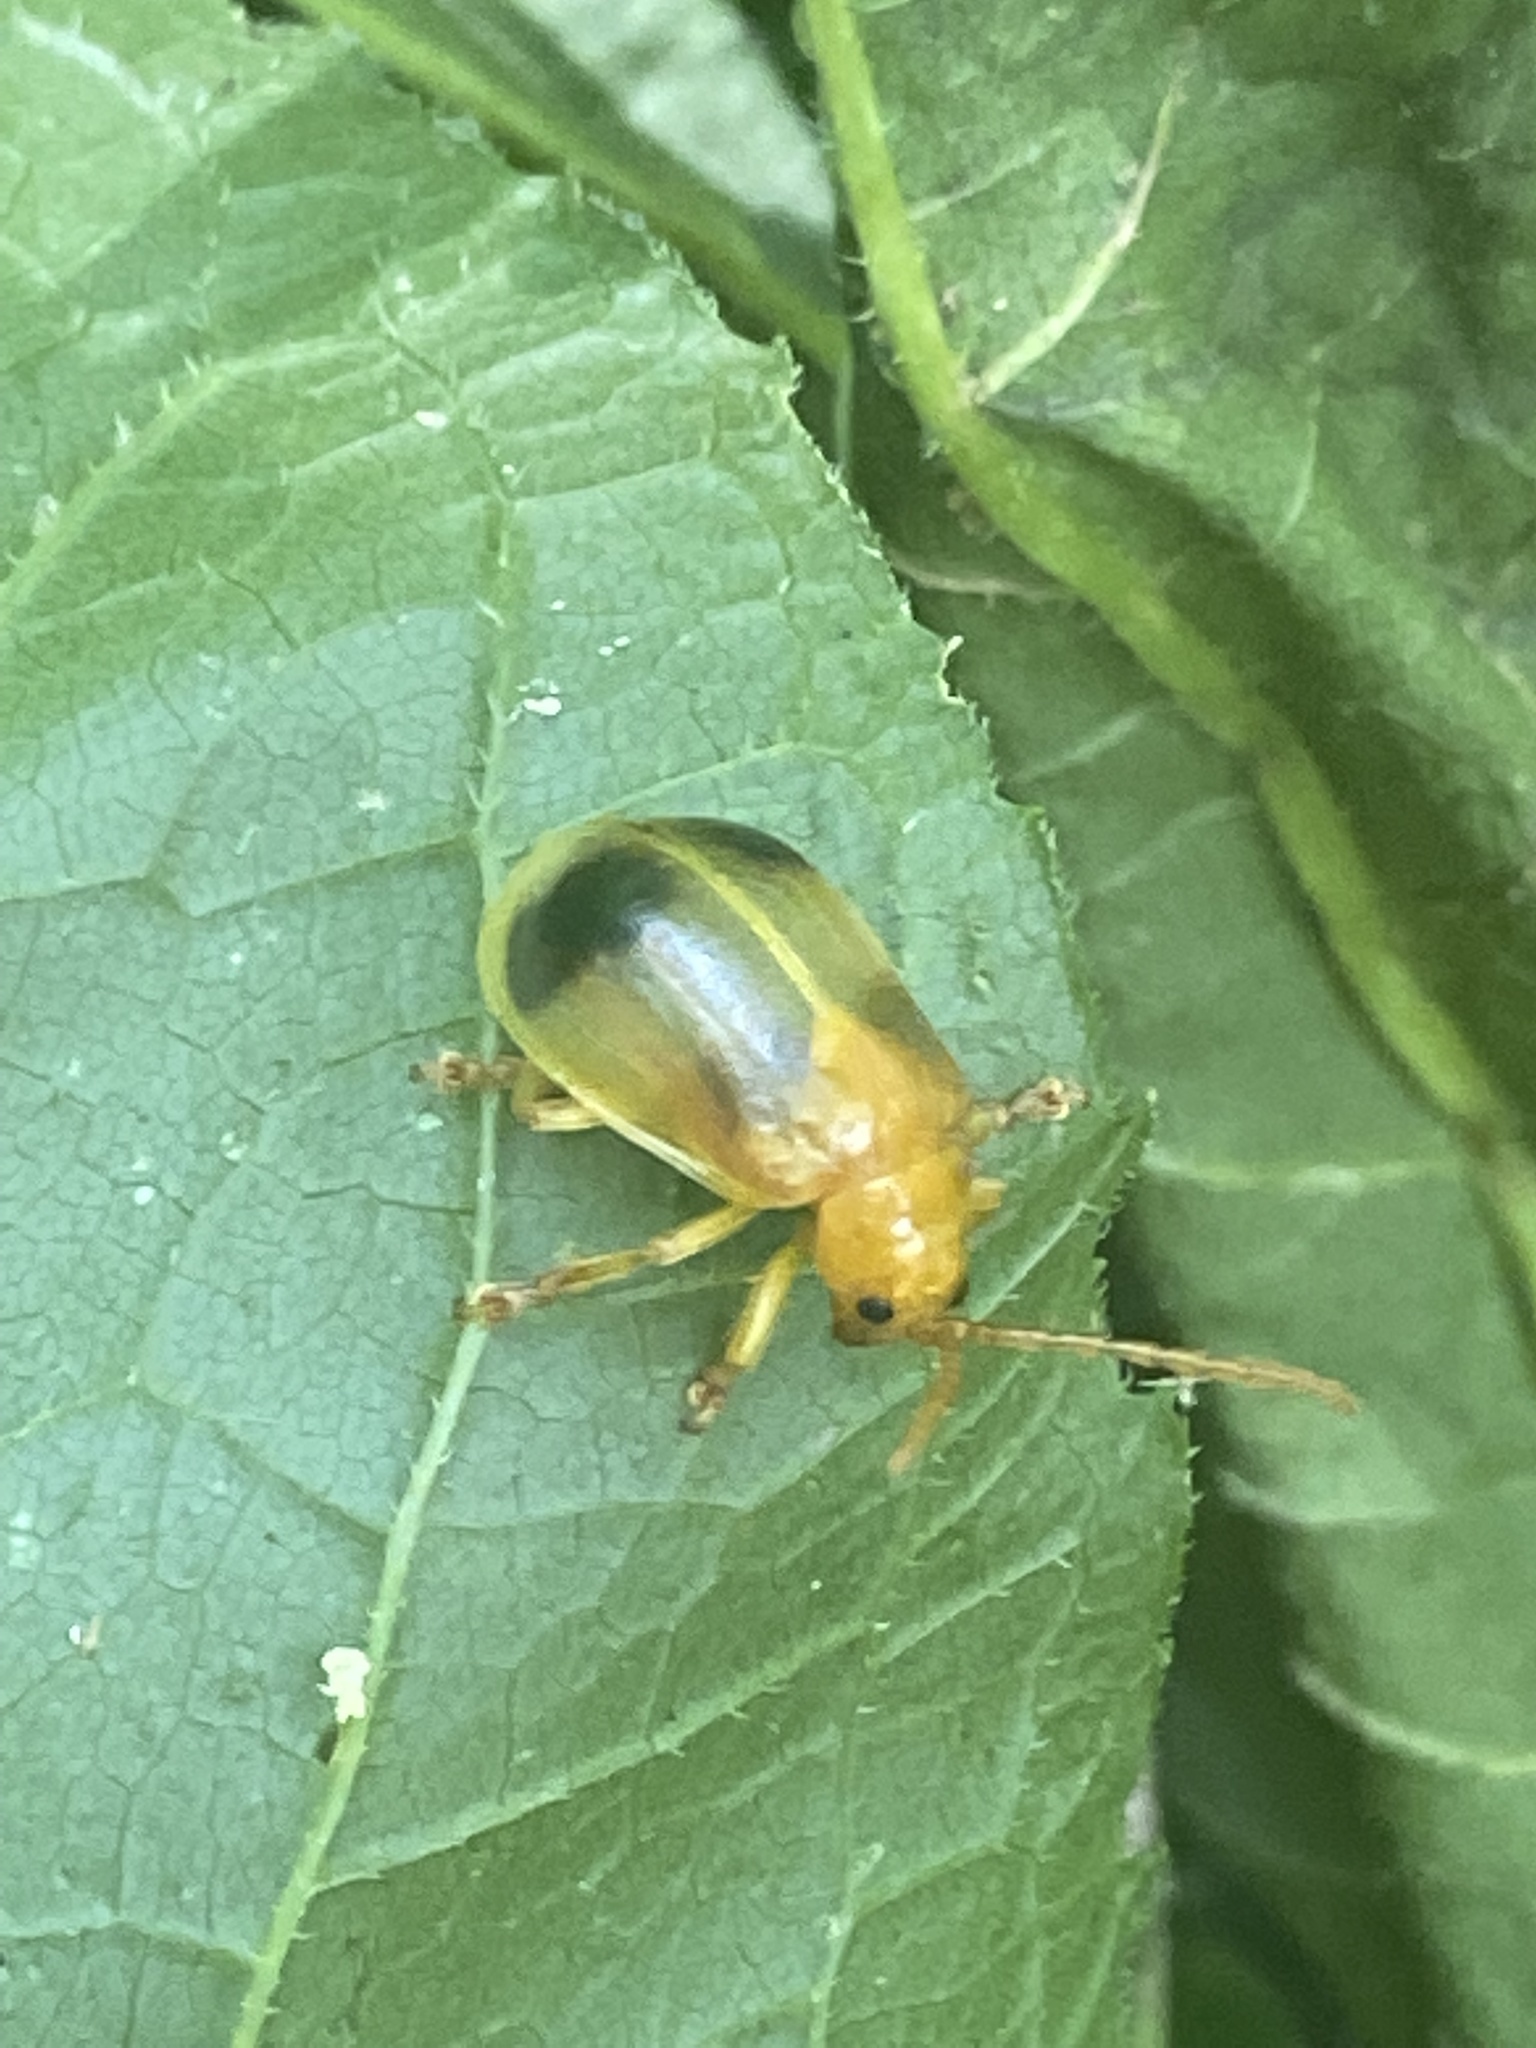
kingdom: Animalia
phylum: Arthropoda
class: Insecta
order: Coleoptera
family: Chrysomelidae
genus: Monocesta
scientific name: Monocesta coryli
